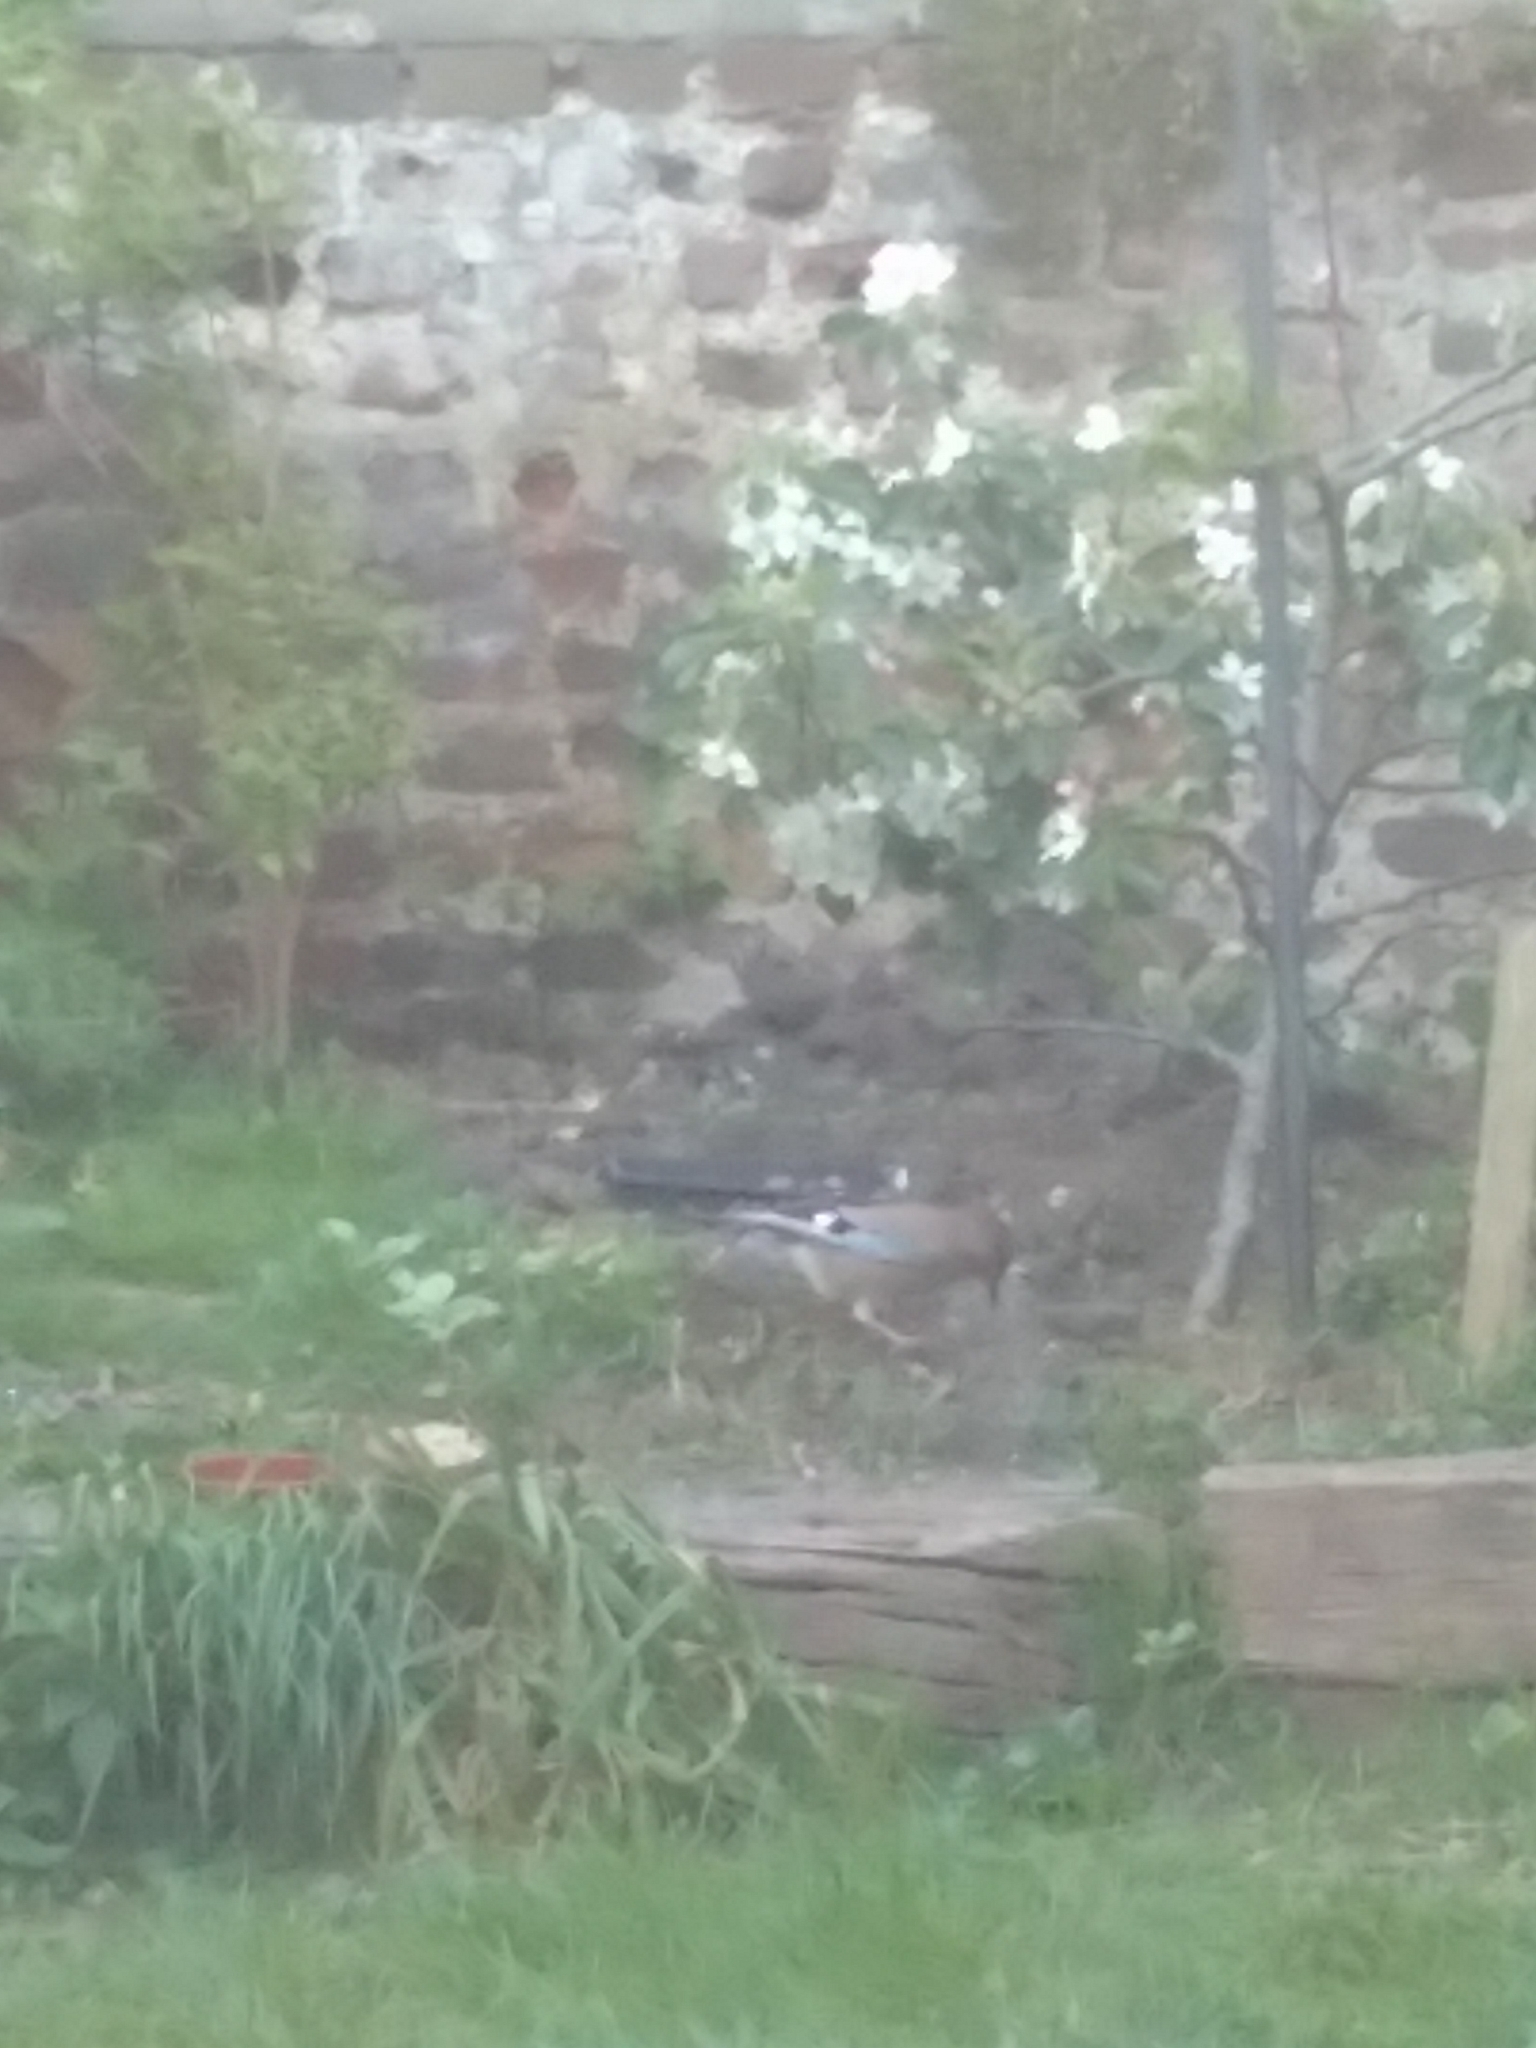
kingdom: Animalia
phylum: Chordata
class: Aves
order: Passeriformes
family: Corvidae
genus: Garrulus
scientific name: Garrulus glandarius
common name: Eurasian jay
